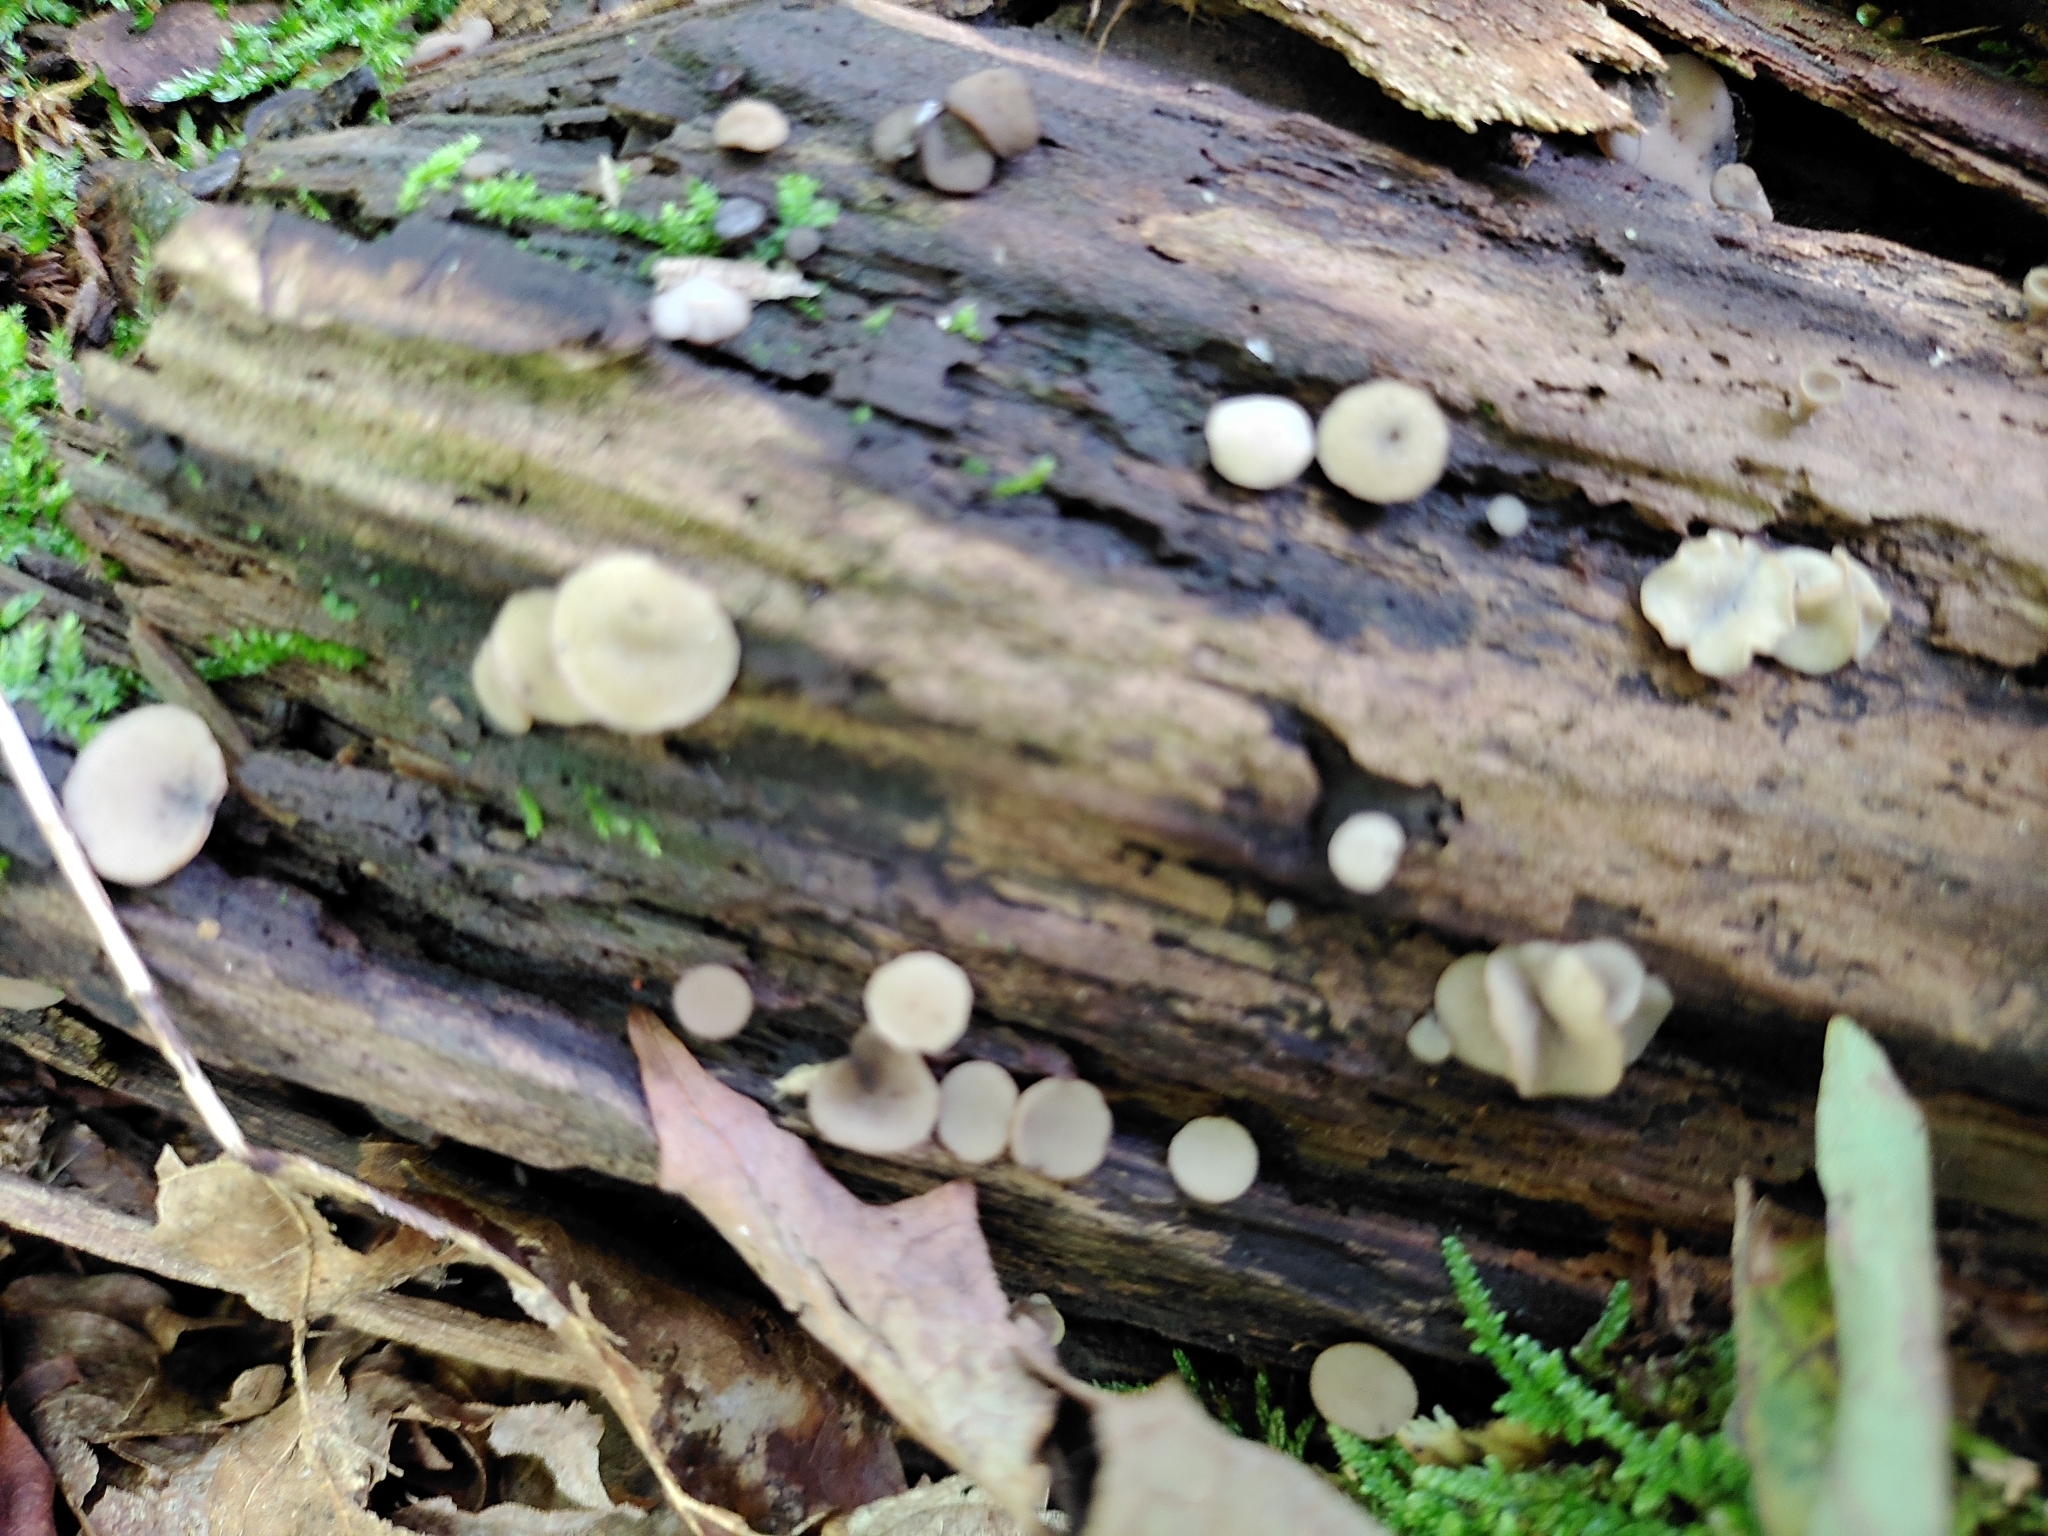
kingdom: Fungi
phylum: Ascomycota
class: Leotiomycetes
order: Helotiales
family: Helotiaceae
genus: Tatraea
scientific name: Tatraea macrospora
